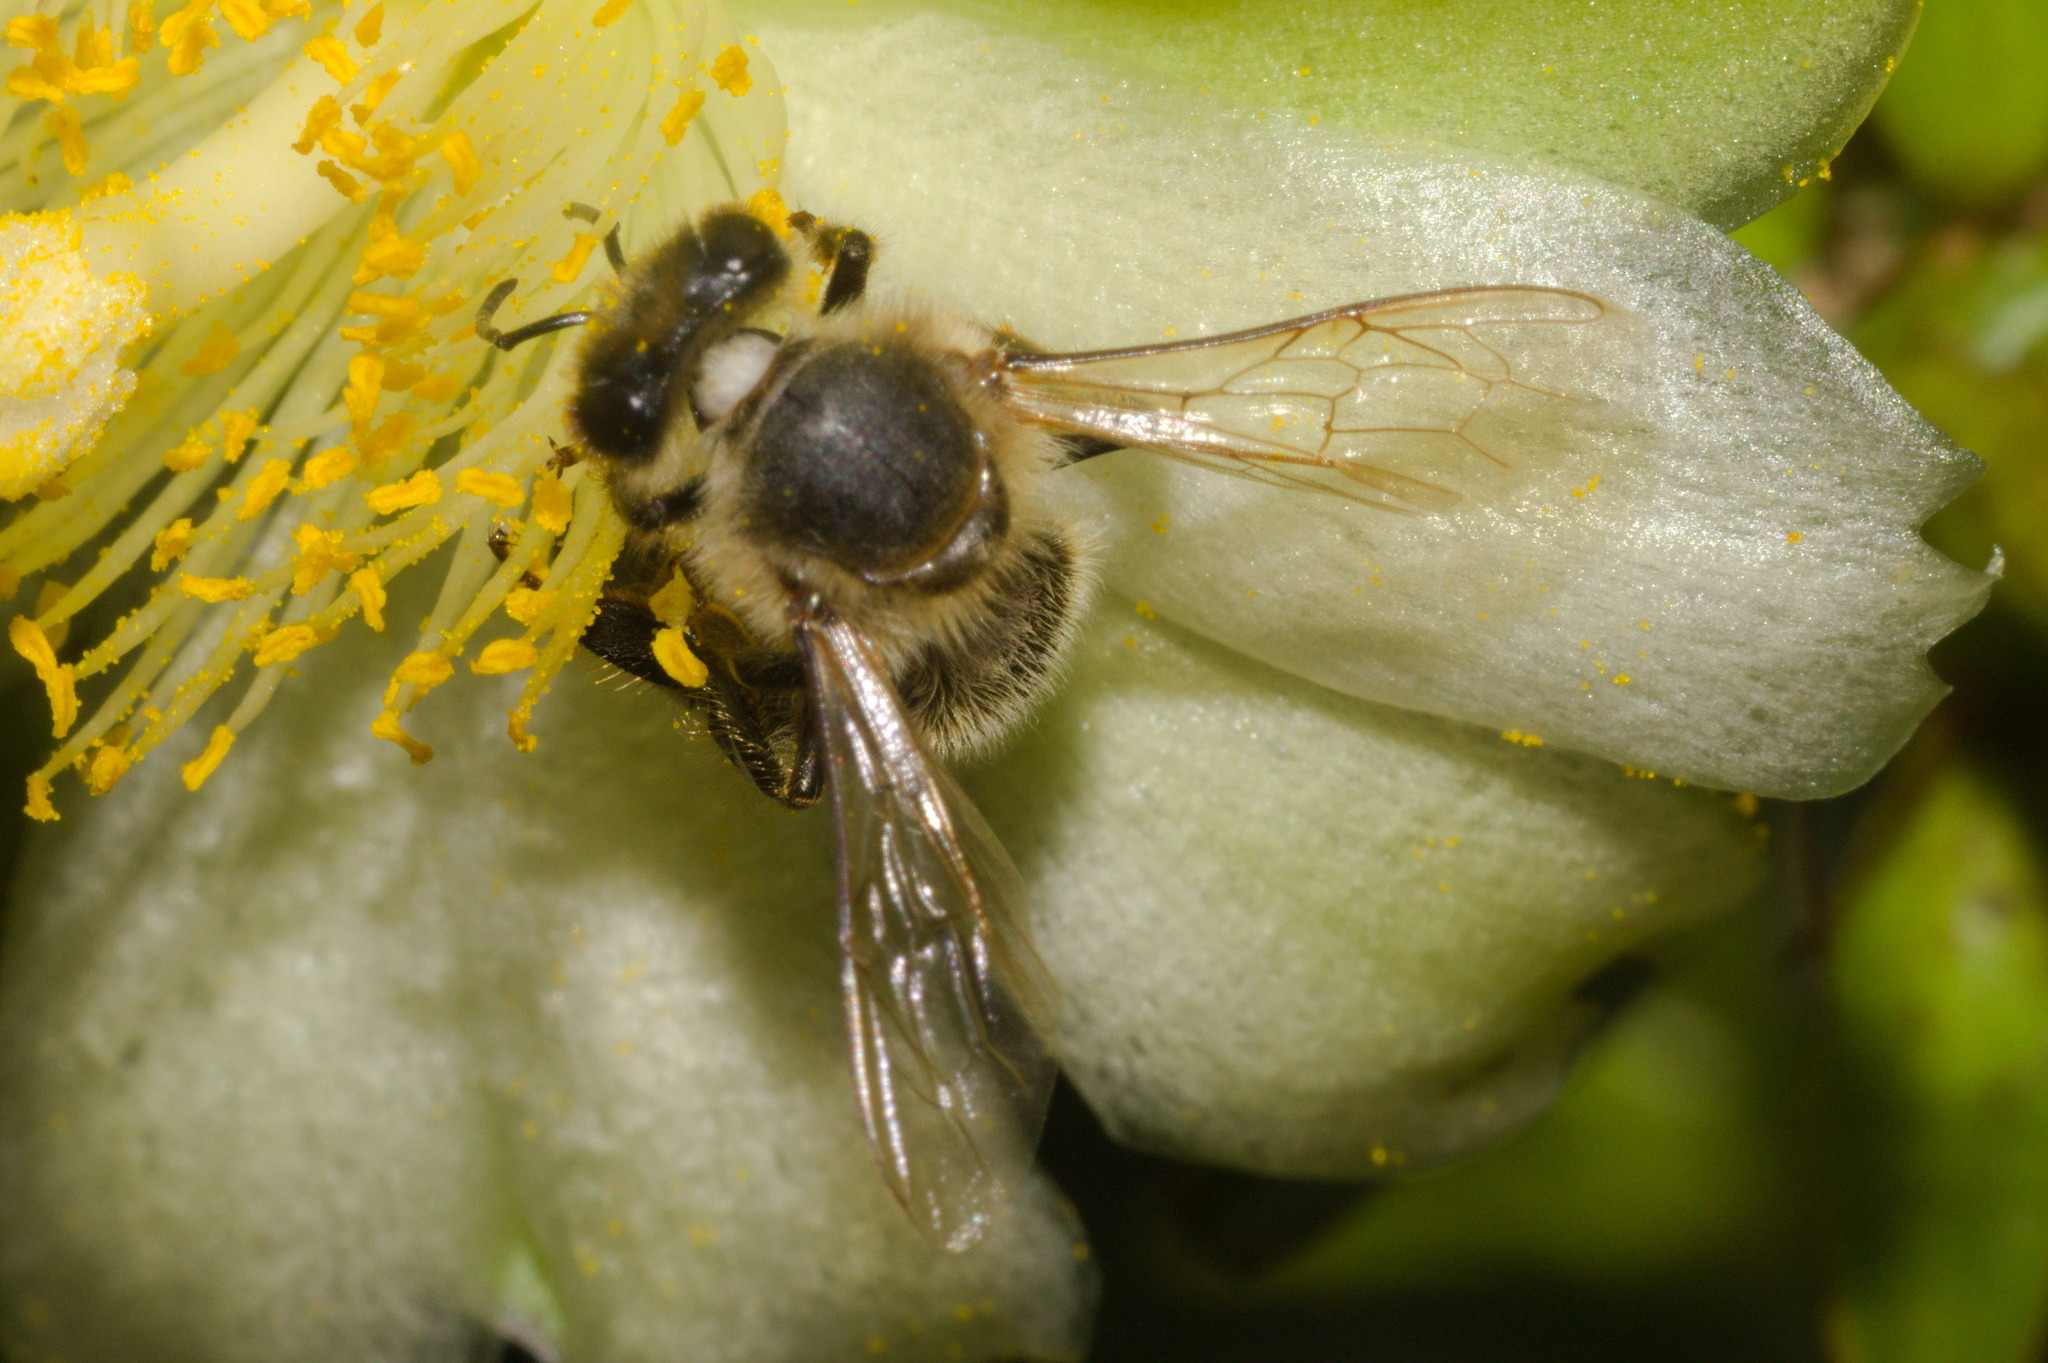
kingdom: Animalia
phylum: Arthropoda
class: Insecta
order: Hymenoptera
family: Apidae
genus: Apis
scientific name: Apis mellifera
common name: Honey bee
